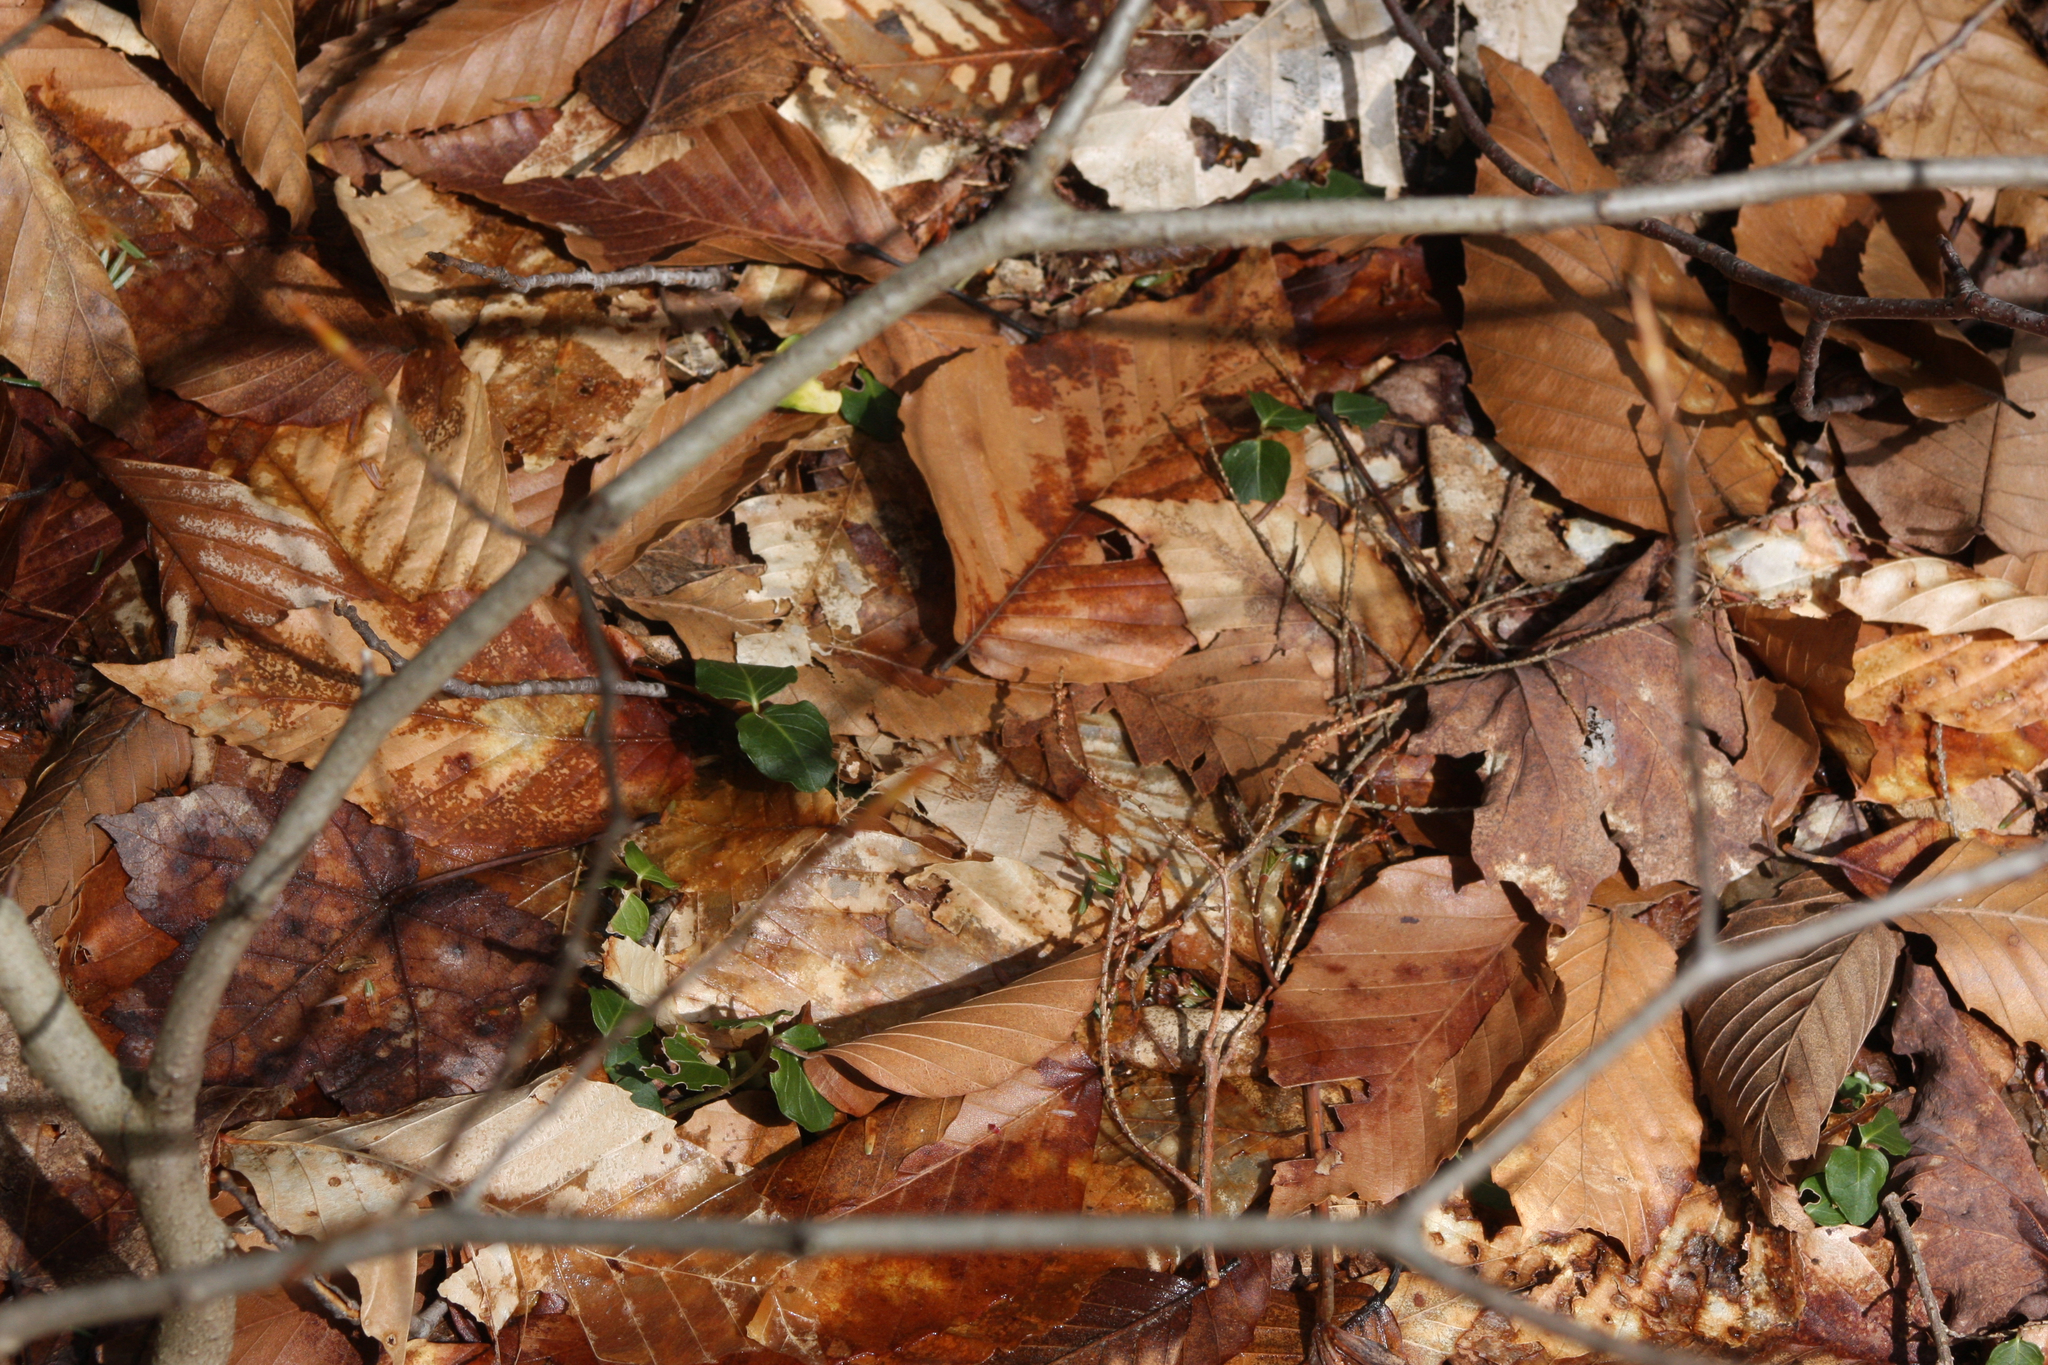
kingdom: Plantae
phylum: Tracheophyta
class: Magnoliopsida
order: Gentianales
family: Rubiaceae
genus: Mitchella
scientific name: Mitchella repens
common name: Partridge-berry
